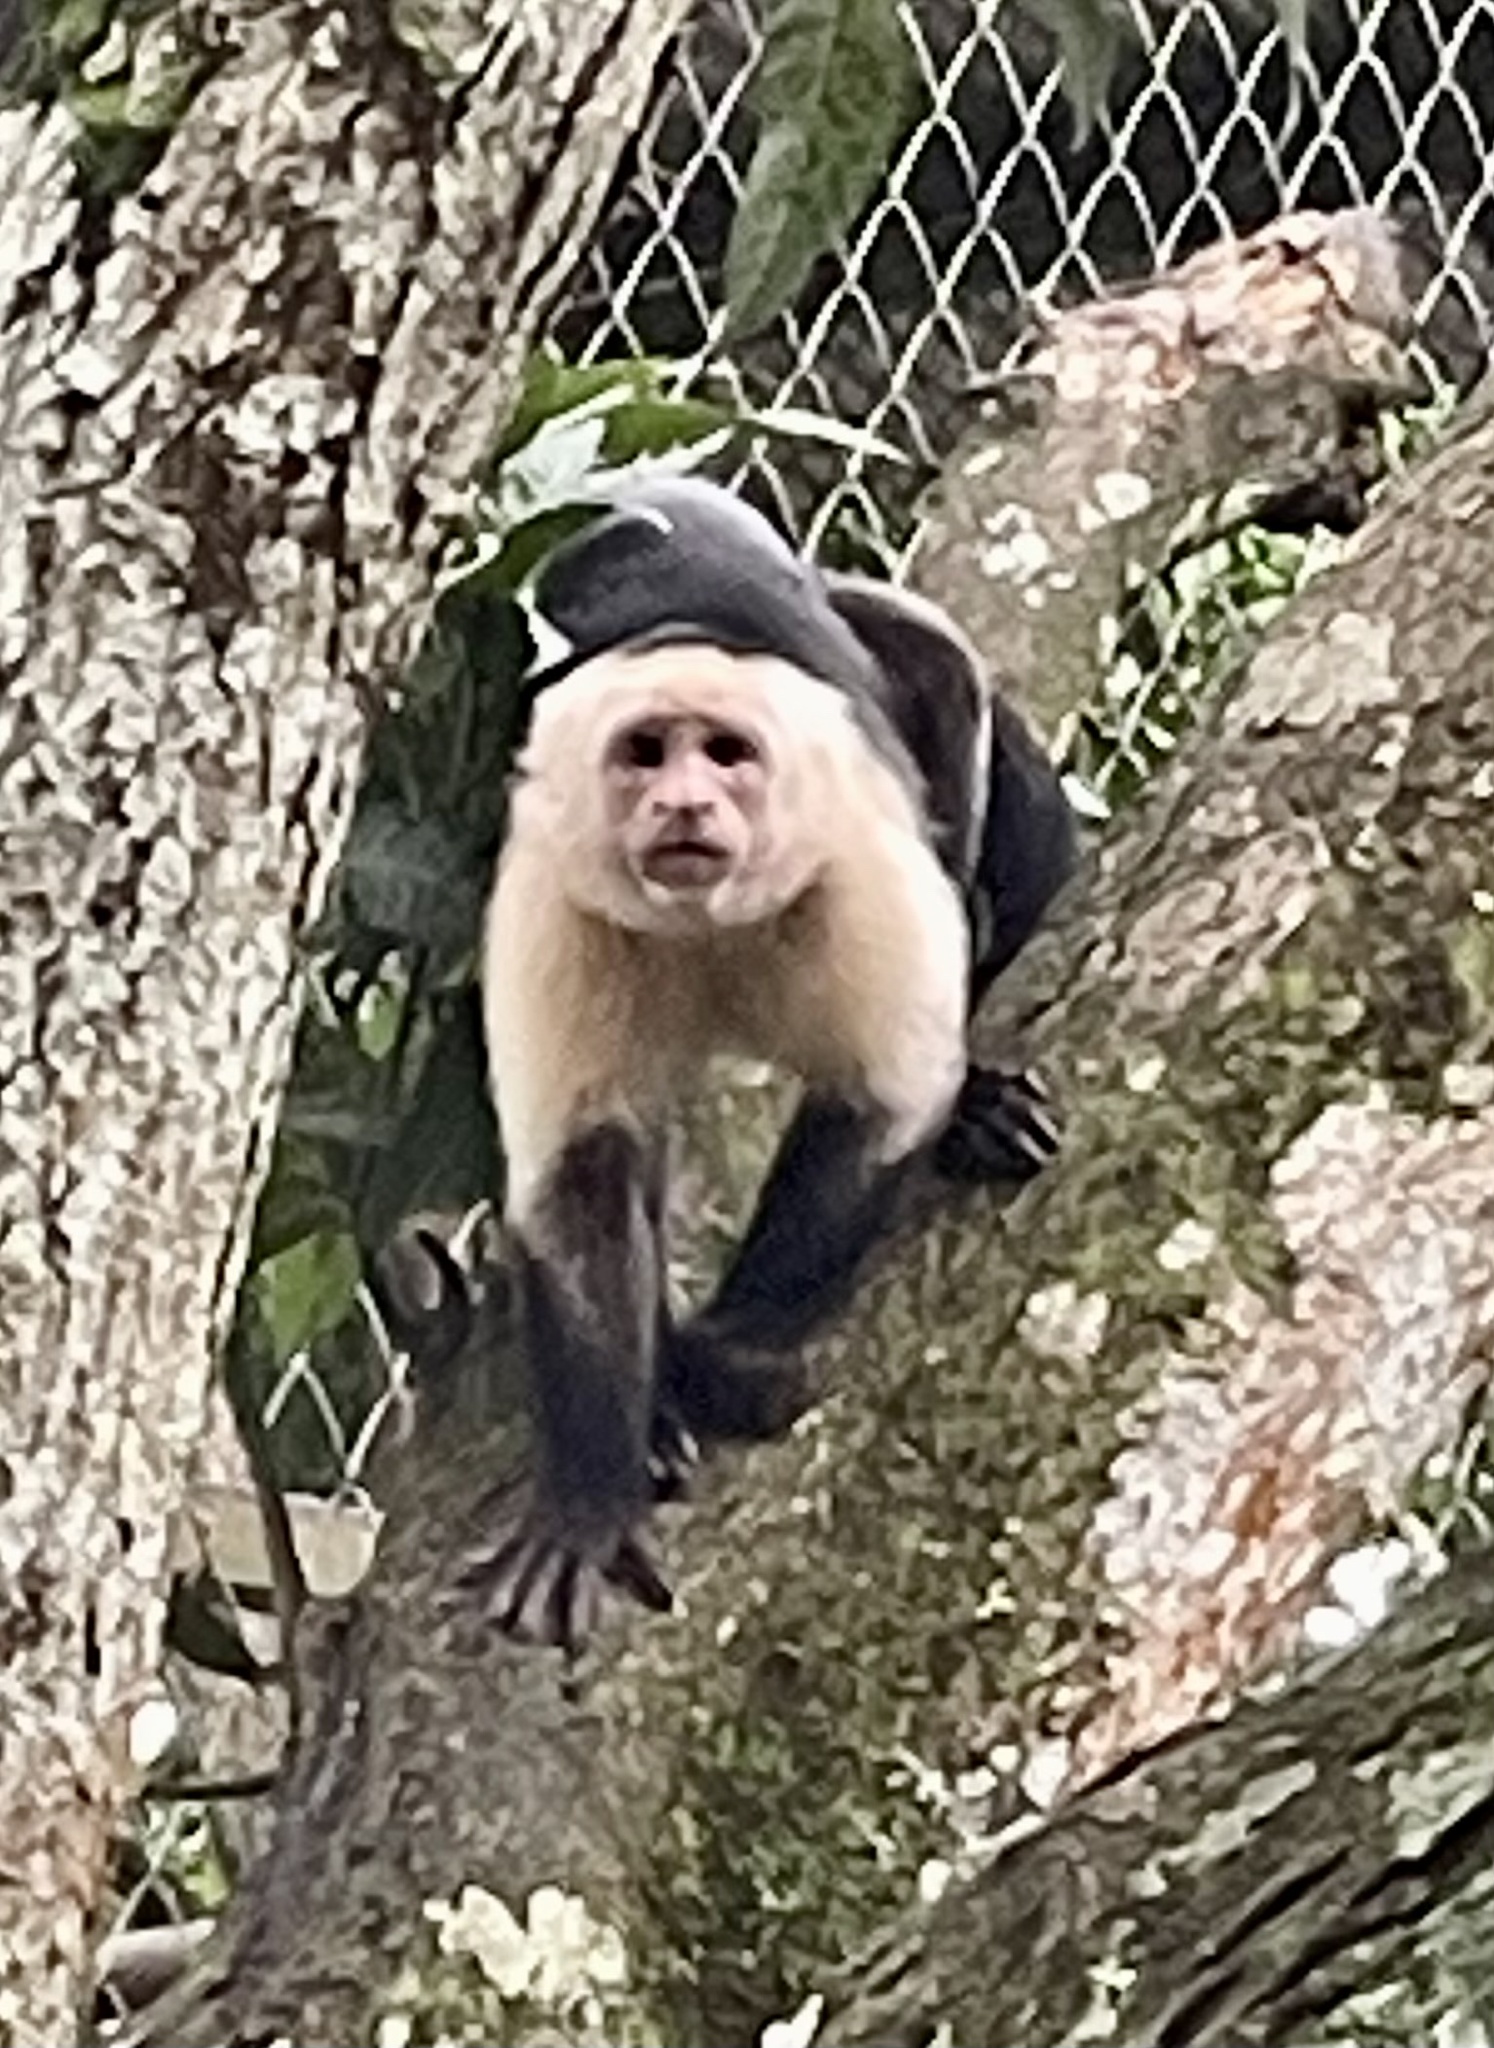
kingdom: Animalia
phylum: Chordata
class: Mammalia
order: Primates
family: Cebidae
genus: Cebus
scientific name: Cebus imitator
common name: Panamanian white-faced capuchin
